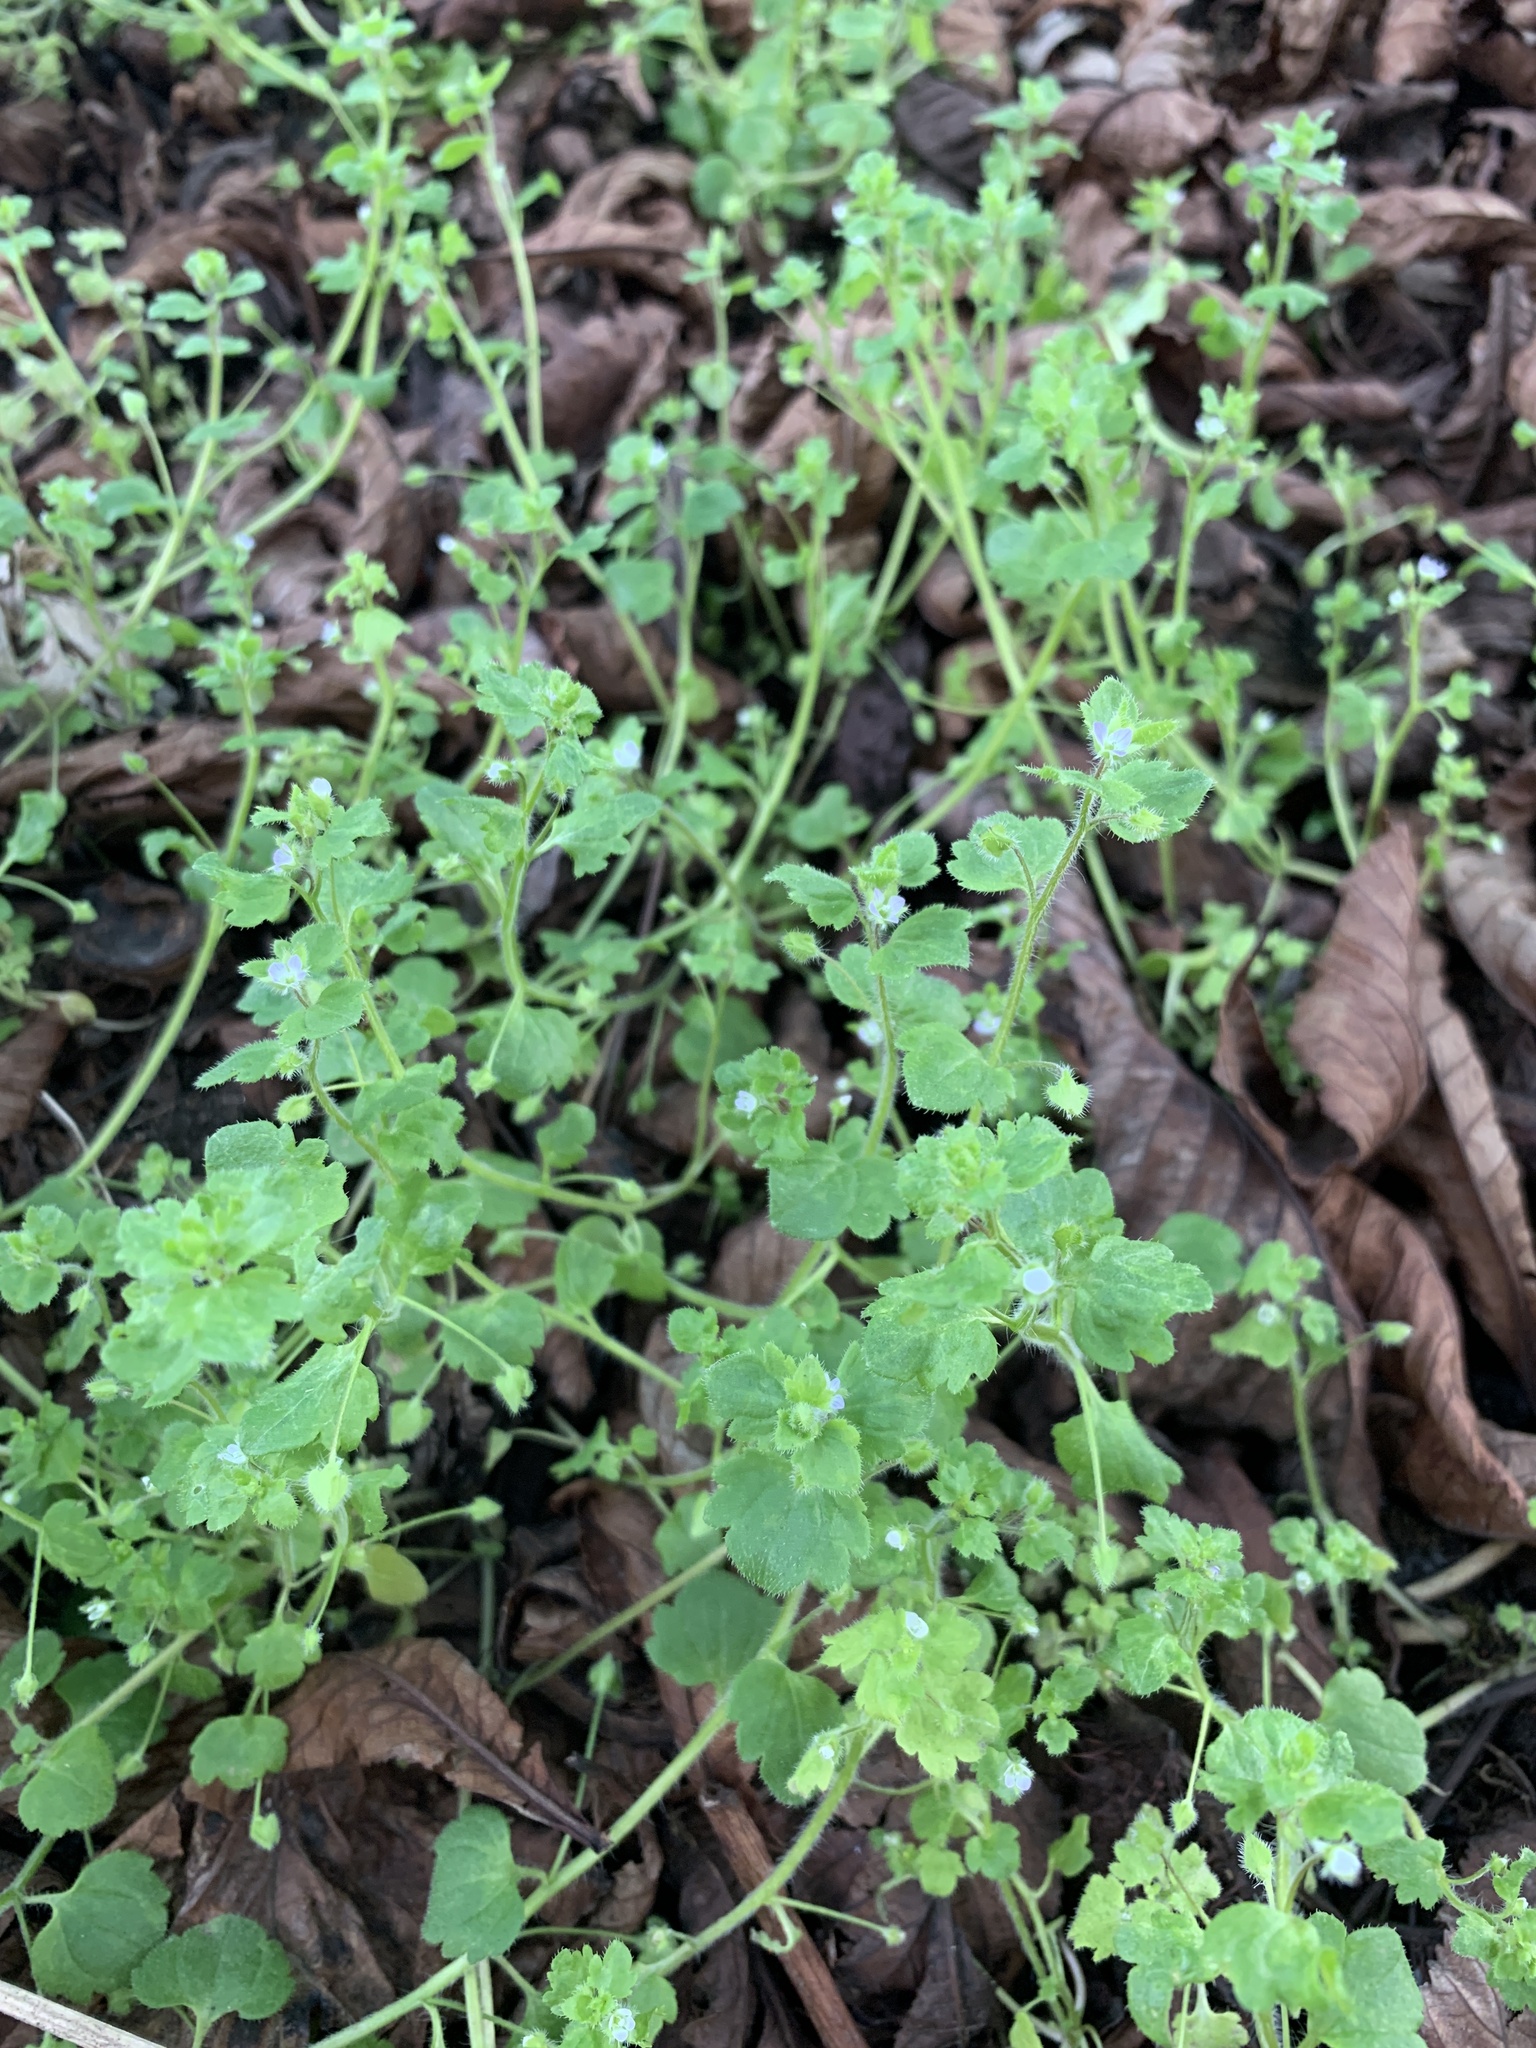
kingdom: Plantae
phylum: Tracheophyta
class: Magnoliopsida
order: Lamiales
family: Plantaginaceae
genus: Veronica
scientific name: Veronica sublobata
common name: False ivy-leaved speedwell
